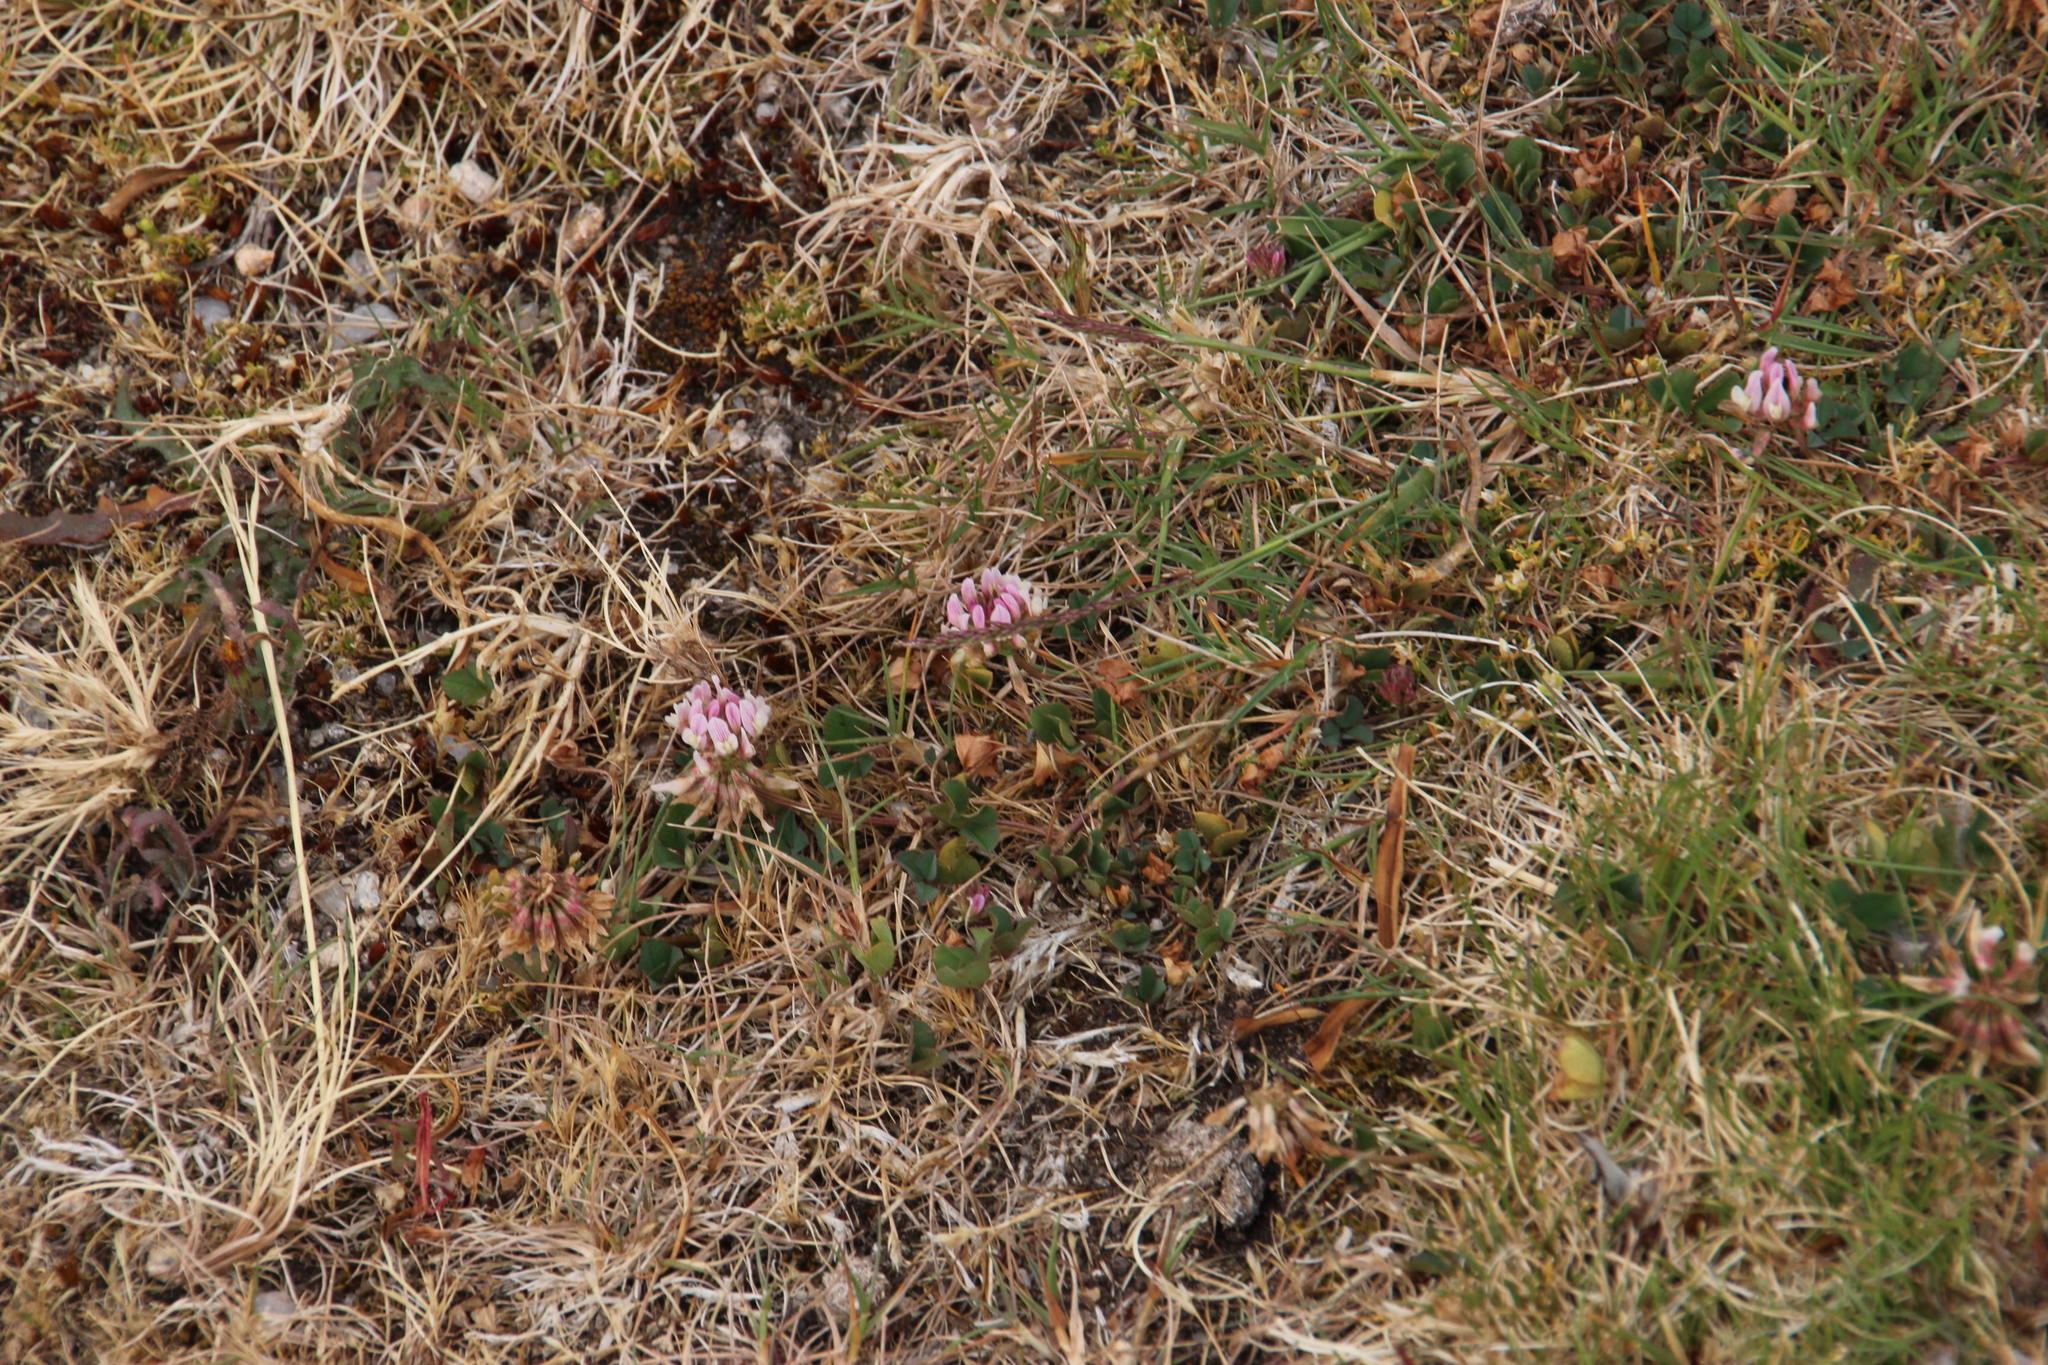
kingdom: Plantae
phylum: Tracheophyta
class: Magnoliopsida
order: Fabales
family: Fabaceae
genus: Trifolium
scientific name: Trifolium repens
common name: White clover
